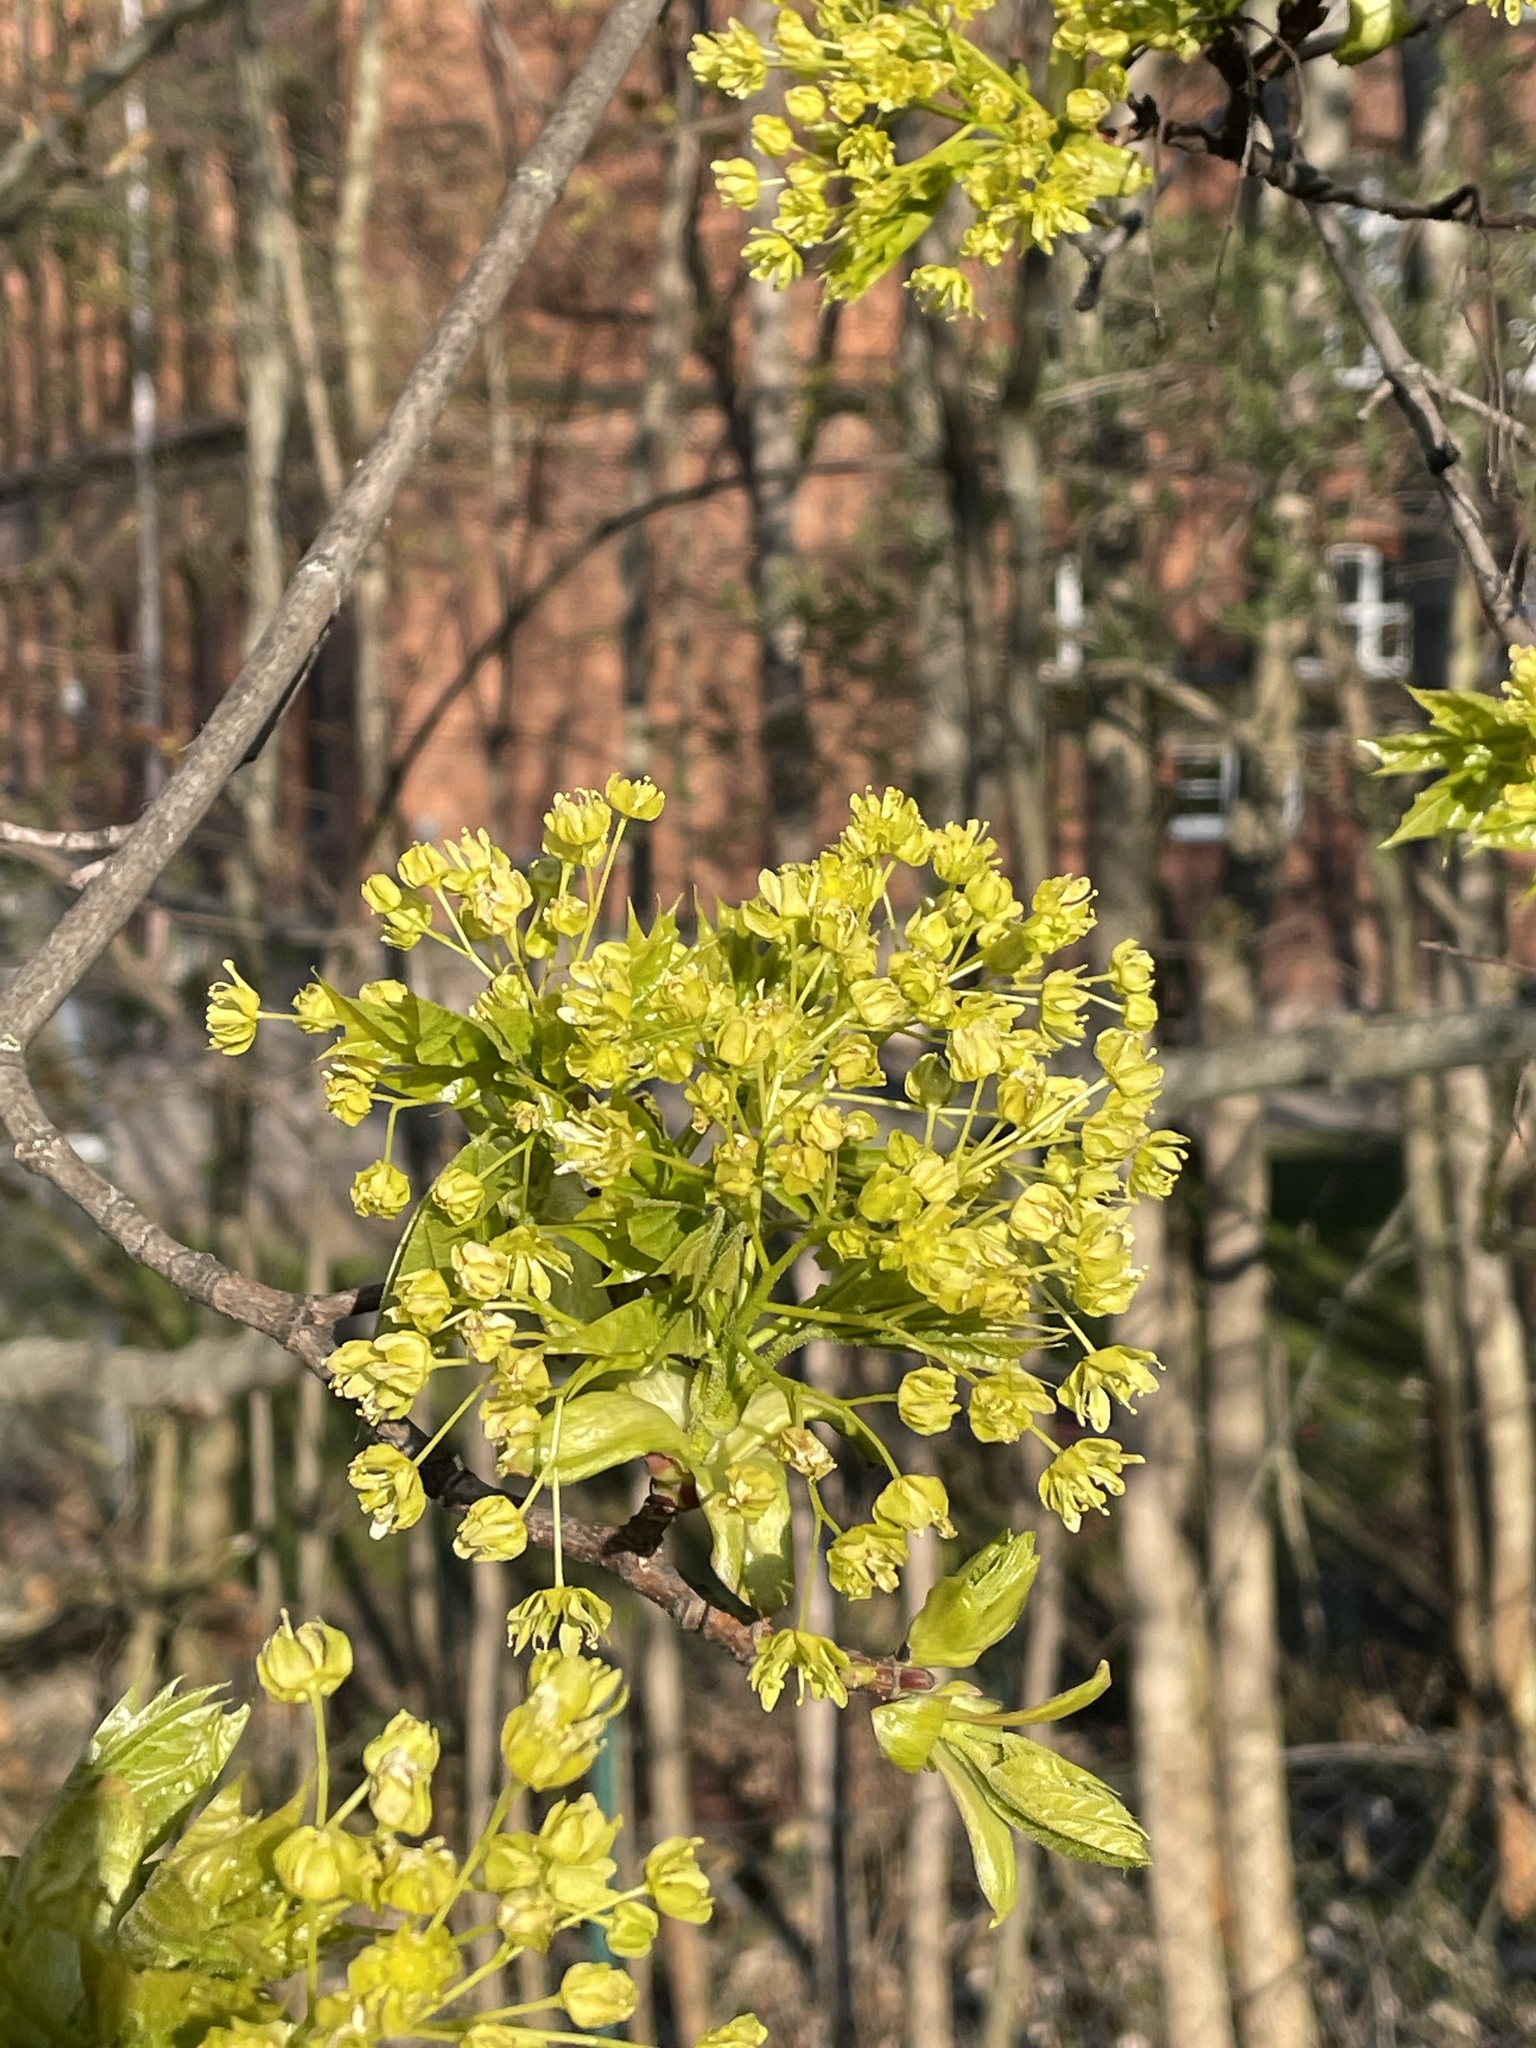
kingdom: Plantae
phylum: Tracheophyta
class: Magnoliopsida
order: Sapindales
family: Sapindaceae
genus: Acer
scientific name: Acer platanoides
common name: Norway maple
